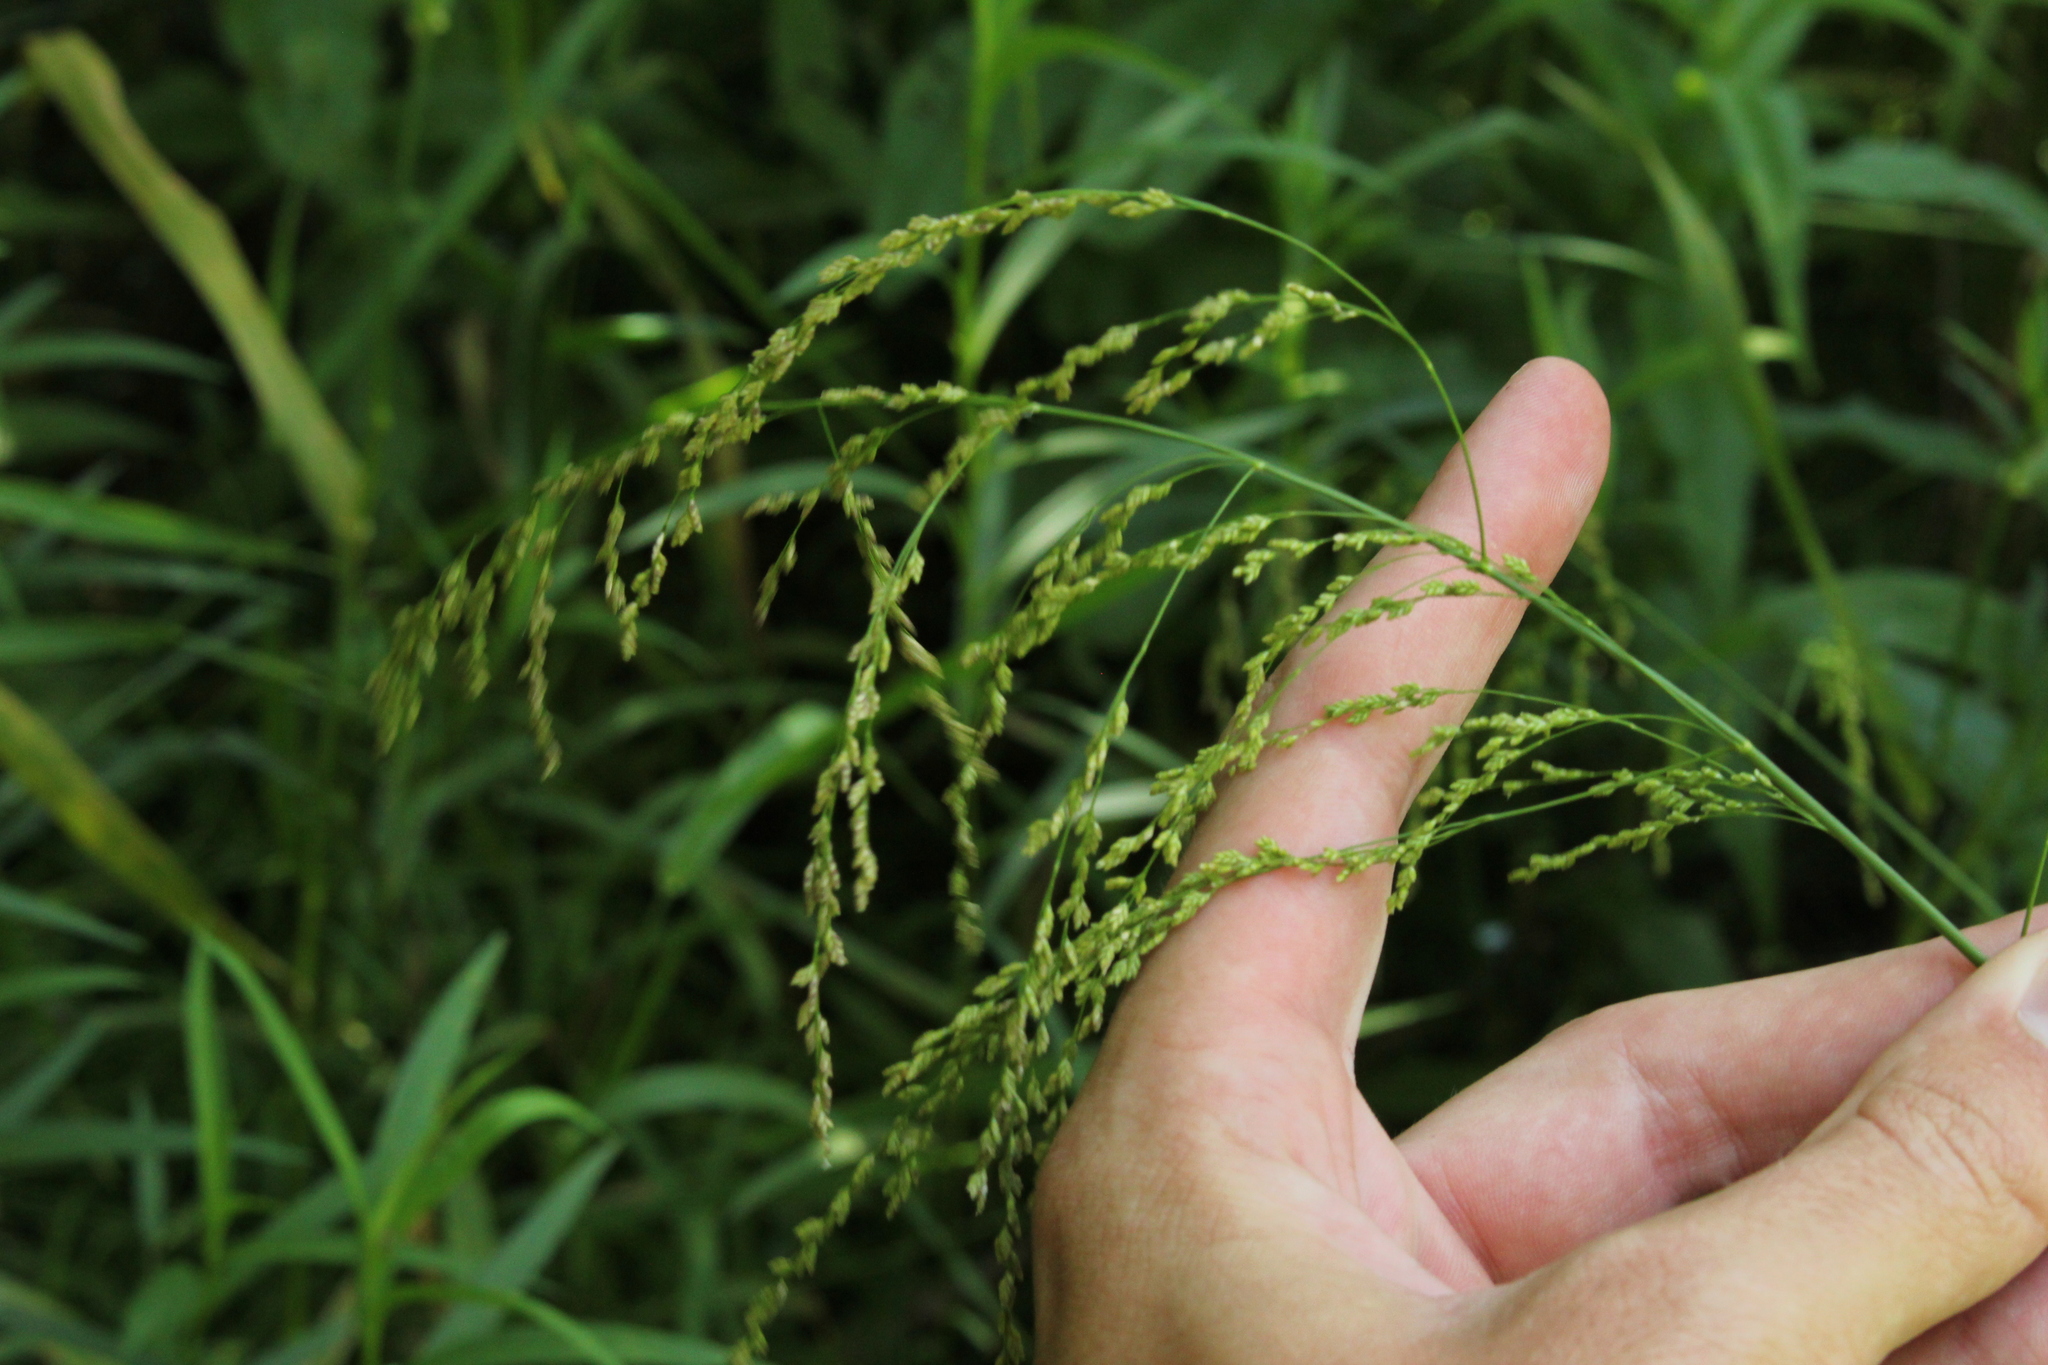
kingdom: Plantae
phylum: Tracheophyta
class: Liliopsida
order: Poales
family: Poaceae
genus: Glyceria
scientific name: Glyceria striata
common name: Fowl manna grass
